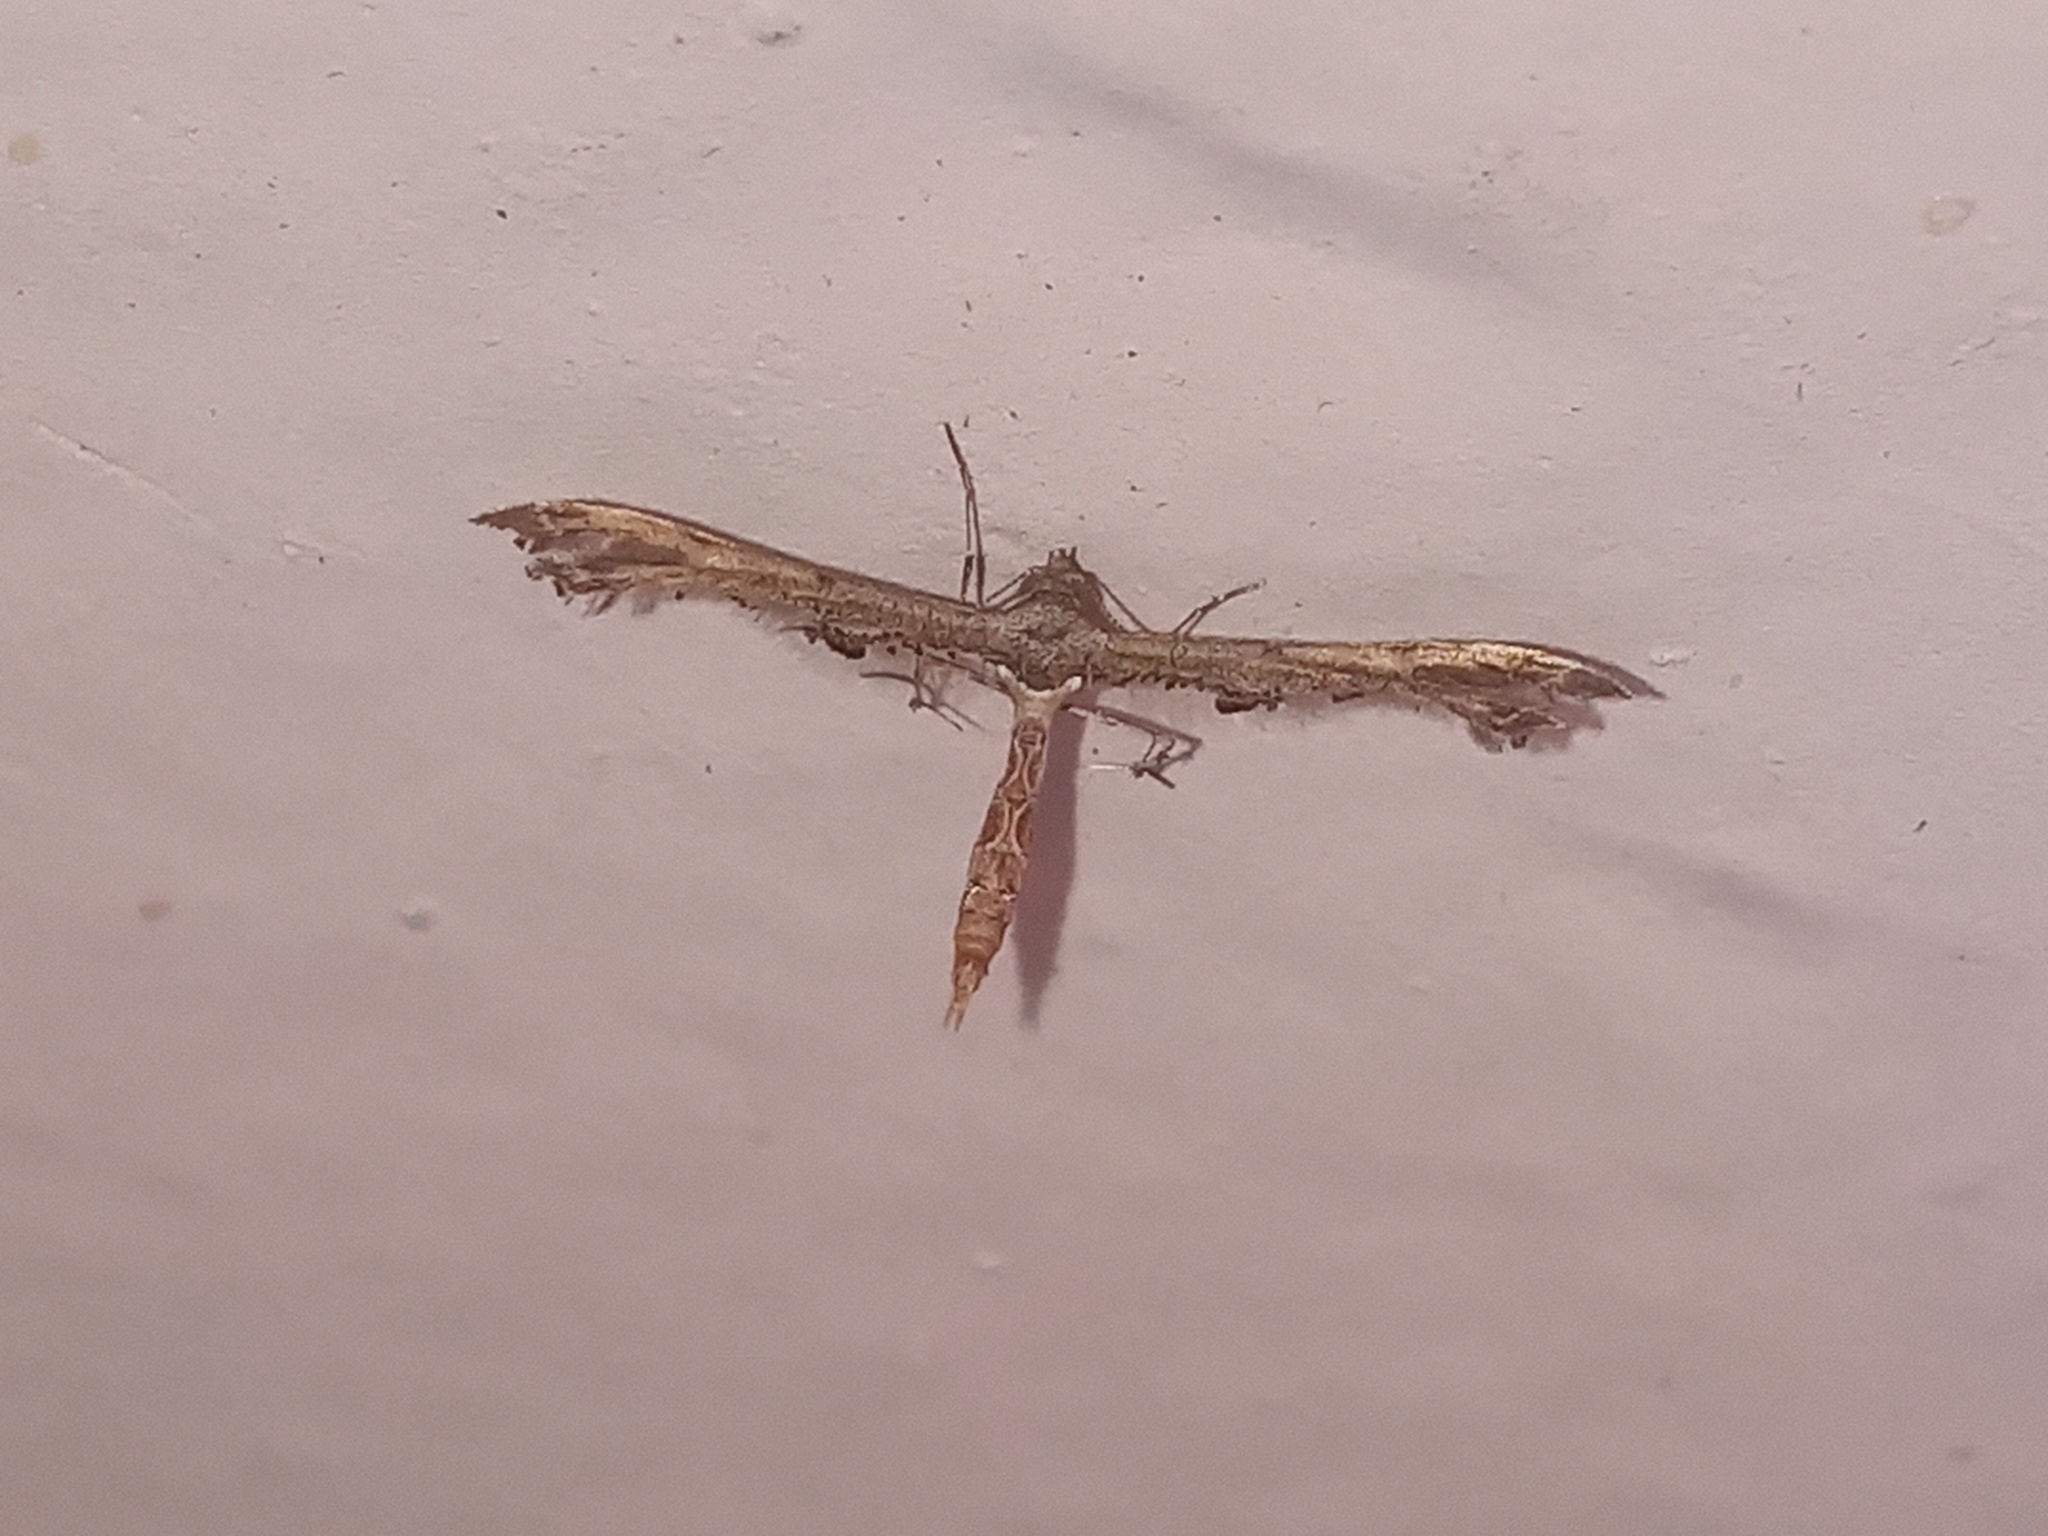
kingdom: Animalia
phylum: Arthropoda
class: Insecta
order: Lepidoptera
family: Pterophoridae
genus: Michaelophorus
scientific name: Michaelophorus indentatus
